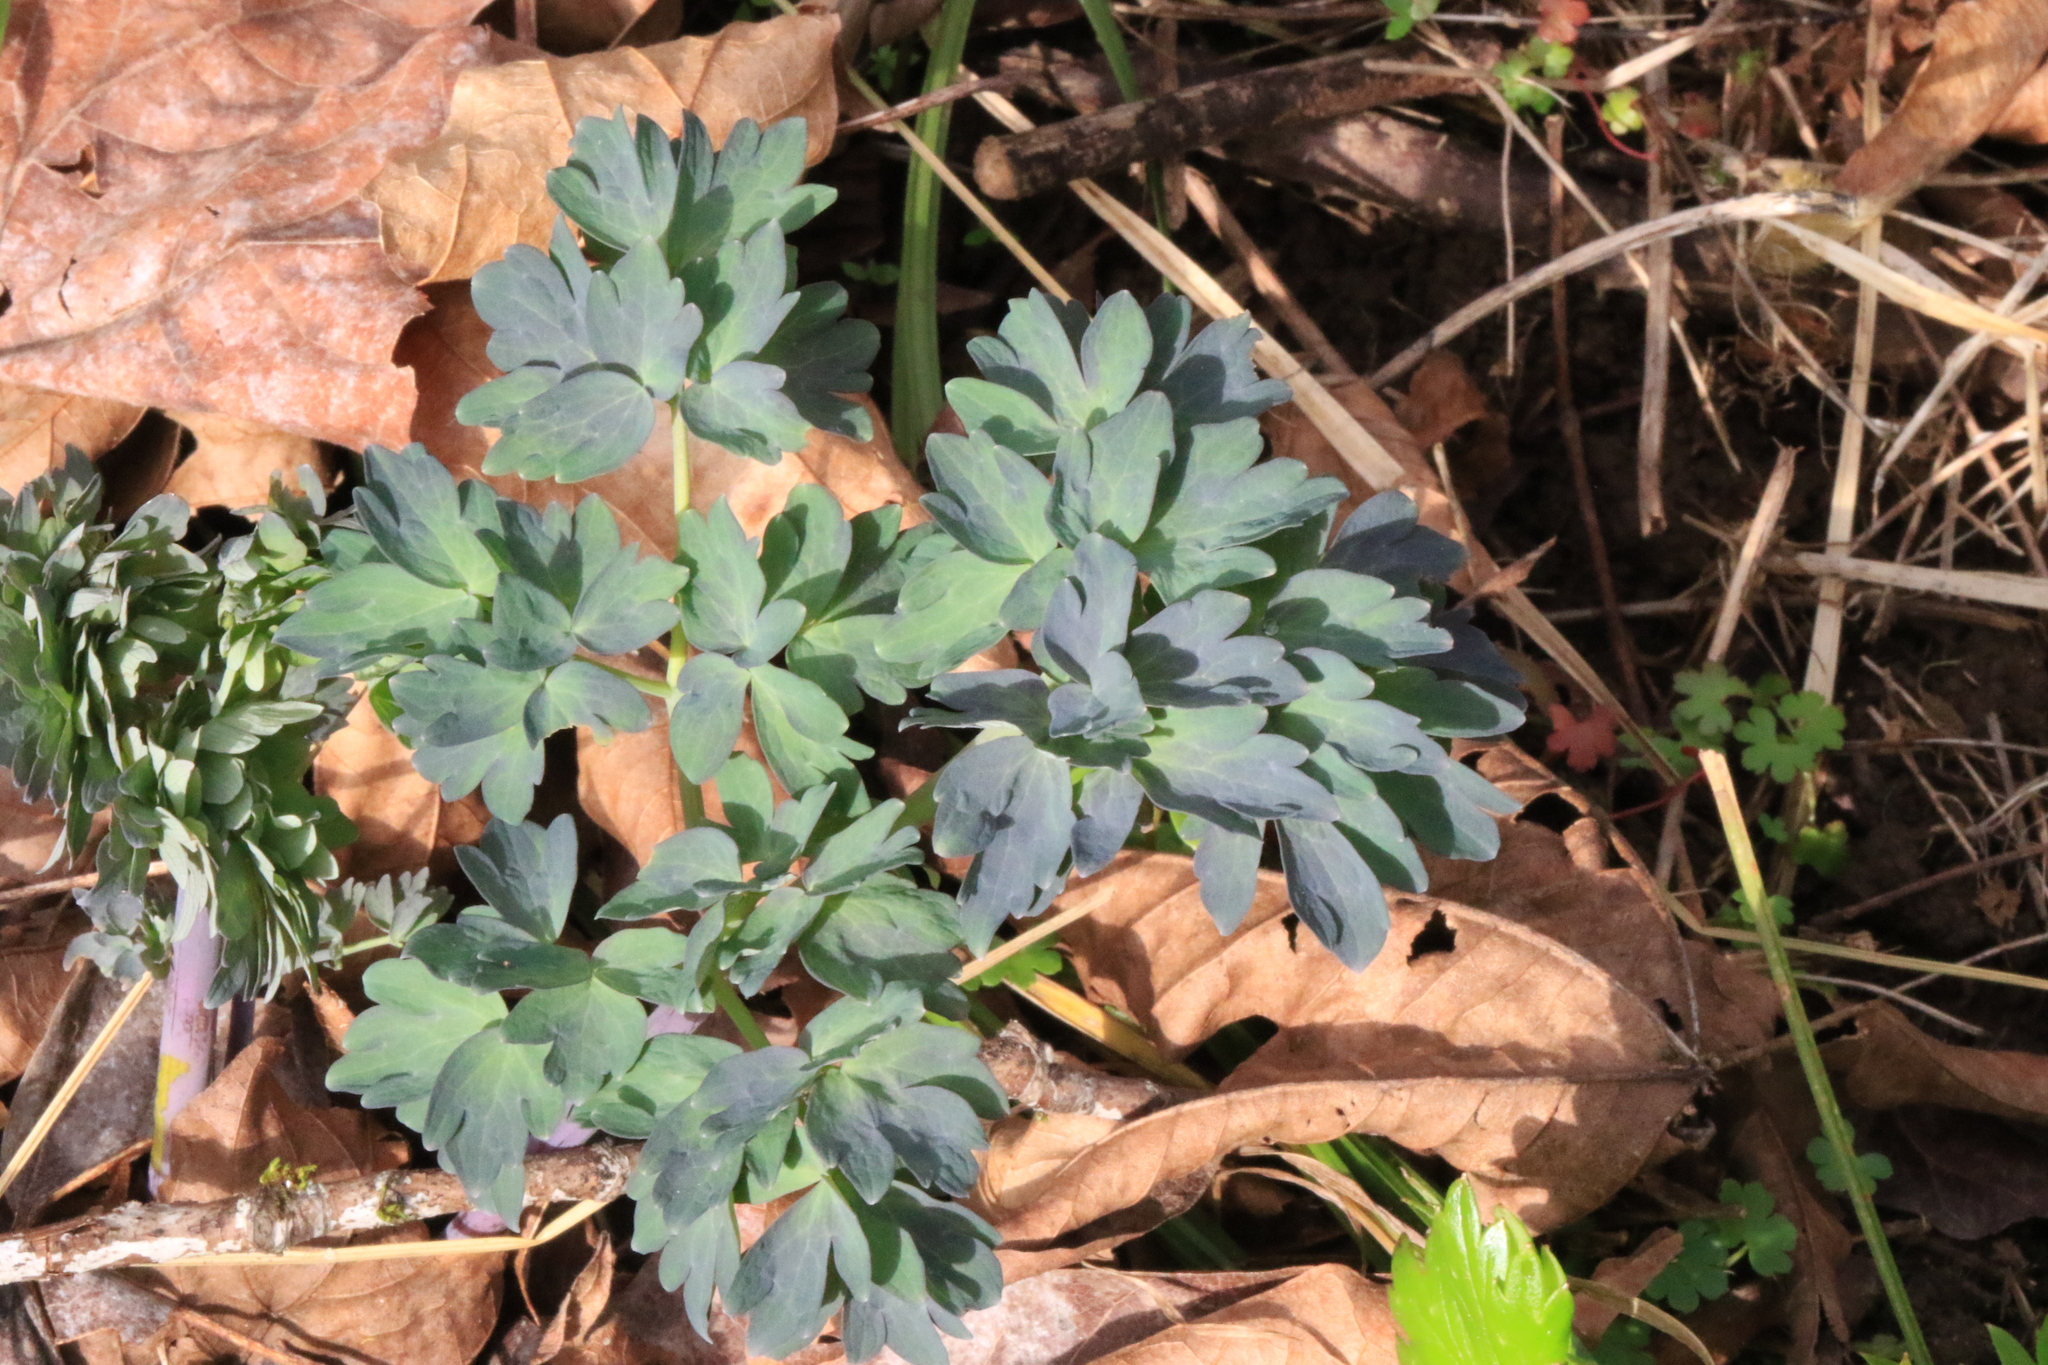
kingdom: Plantae
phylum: Tracheophyta
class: Magnoliopsida
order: Ranunculales
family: Ranunculaceae
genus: Thalictrum
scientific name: Thalictrum fendleri
